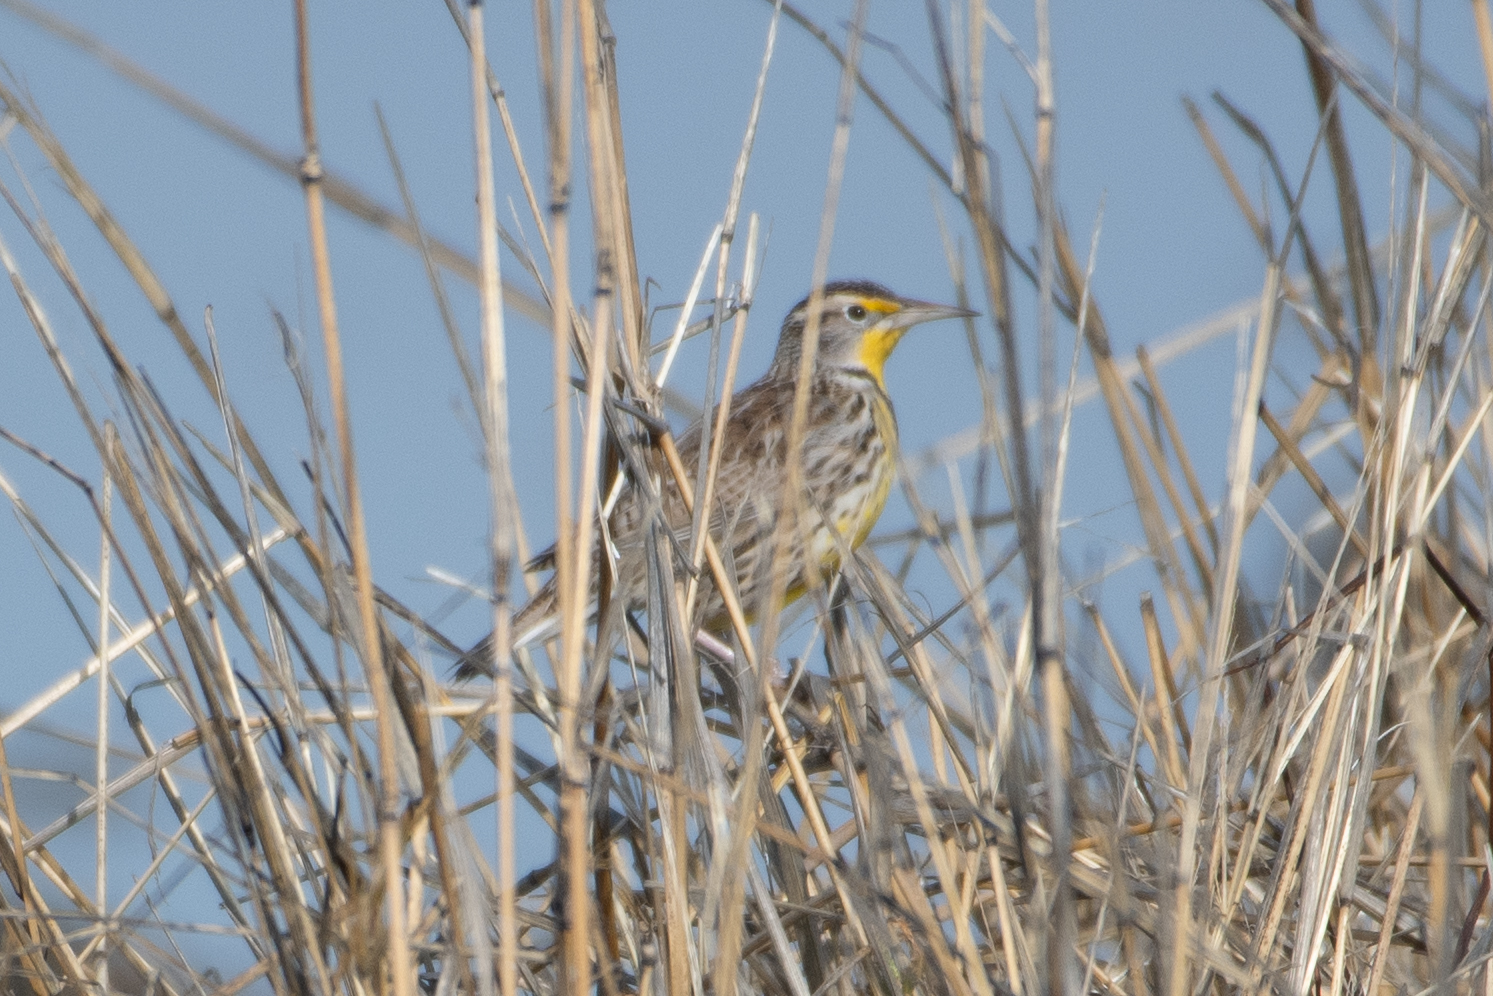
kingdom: Animalia
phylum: Chordata
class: Aves
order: Passeriformes
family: Icteridae
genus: Sturnella
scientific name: Sturnella neglecta
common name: Western meadowlark
